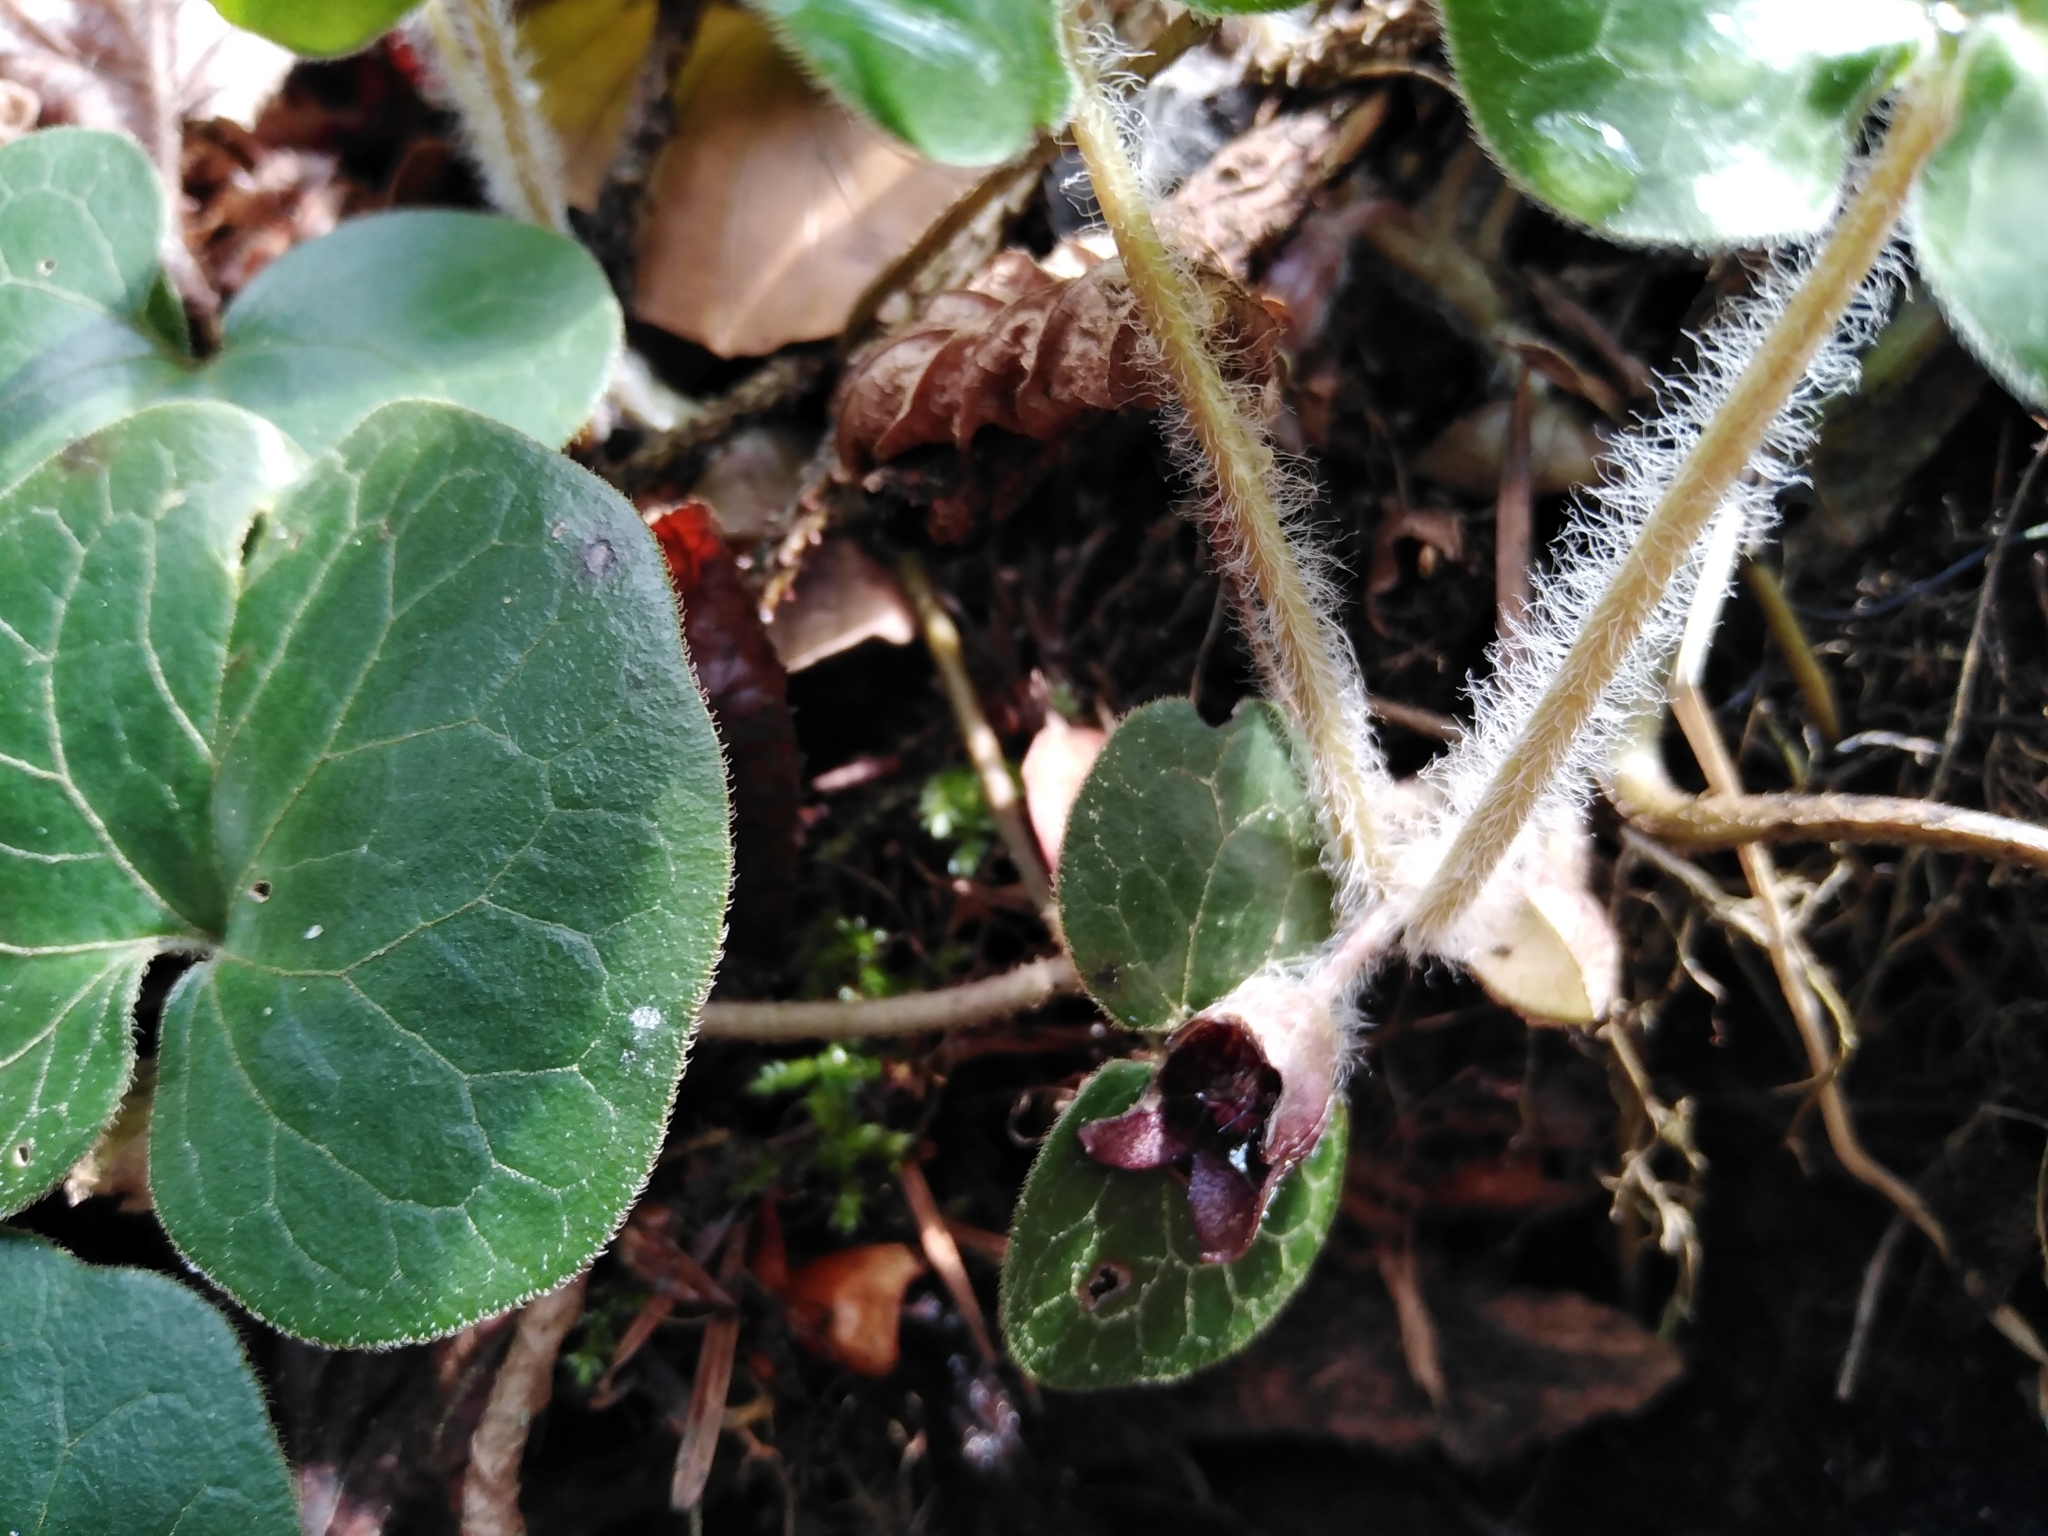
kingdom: Plantae
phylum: Tracheophyta
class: Magnoliopsida
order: Piperales
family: Aristolochiaceae
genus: Asarum
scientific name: Asarum europaeum
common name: Asarabacca
